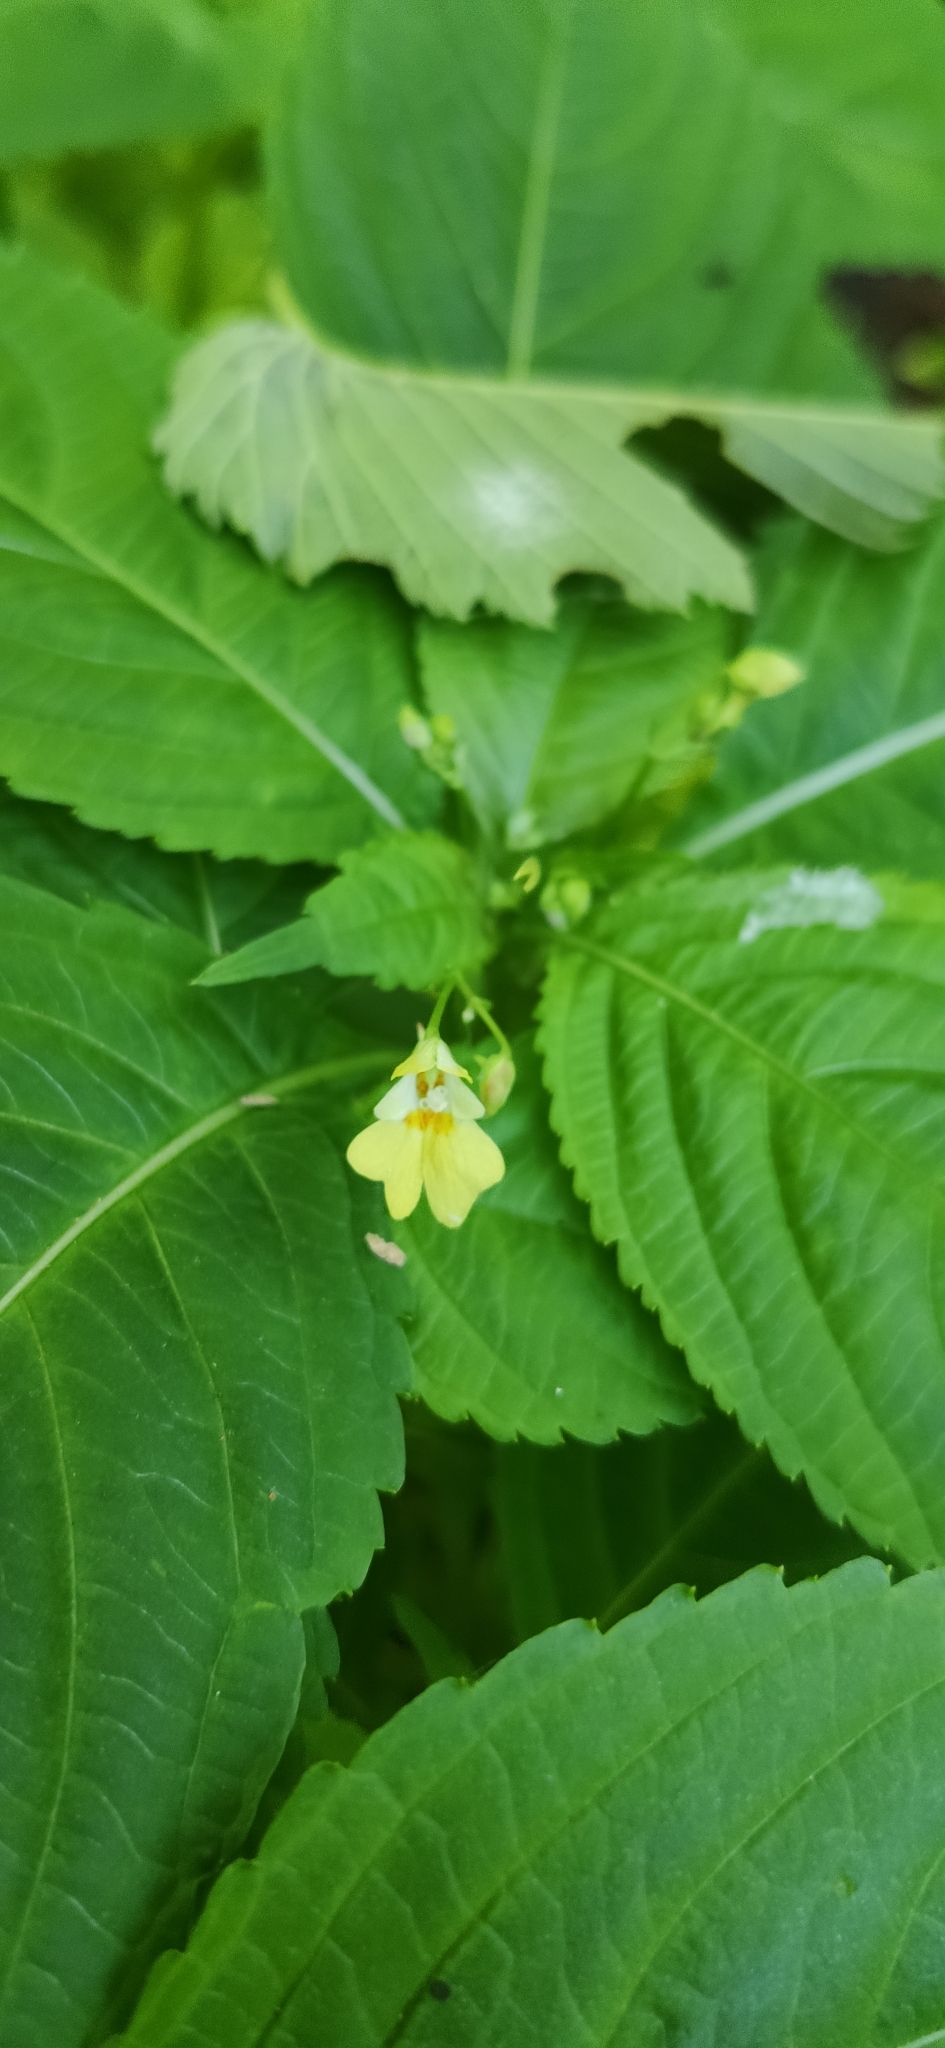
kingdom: Plantae
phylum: Tracheophyta
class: Magnoliopsida
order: Ericales
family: Balsaminaceae
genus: Impatiens
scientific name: Impatiens parviflora
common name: Small balsam
